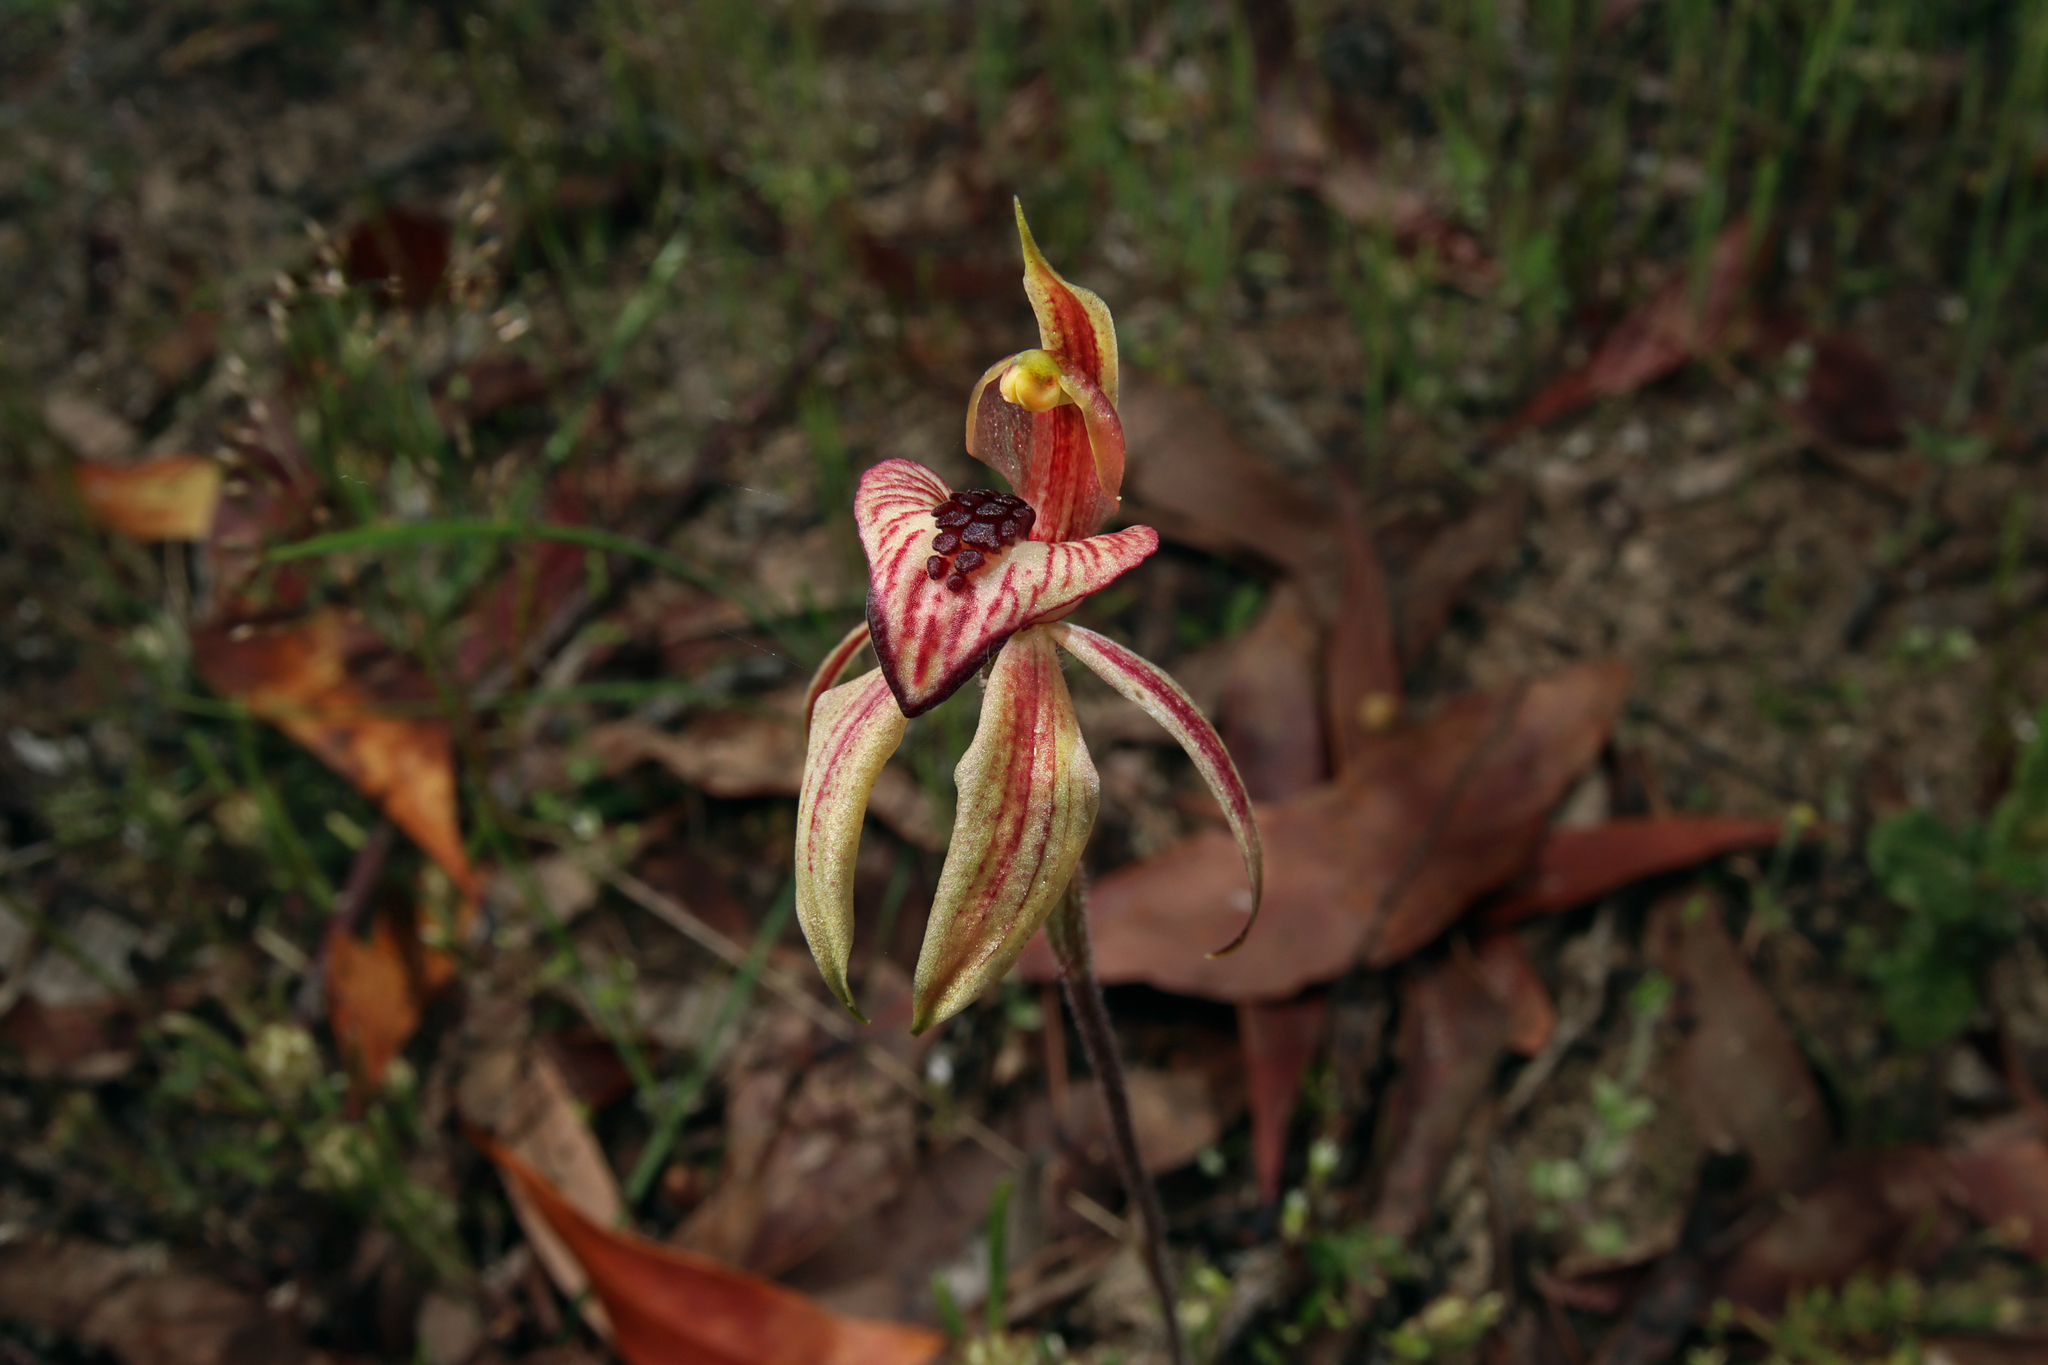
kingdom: Plantae
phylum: Tracheophyta
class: Liliopsida
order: Asparagales
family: Orchidaceae
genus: Caladenia
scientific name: Caladenia cardiochila
